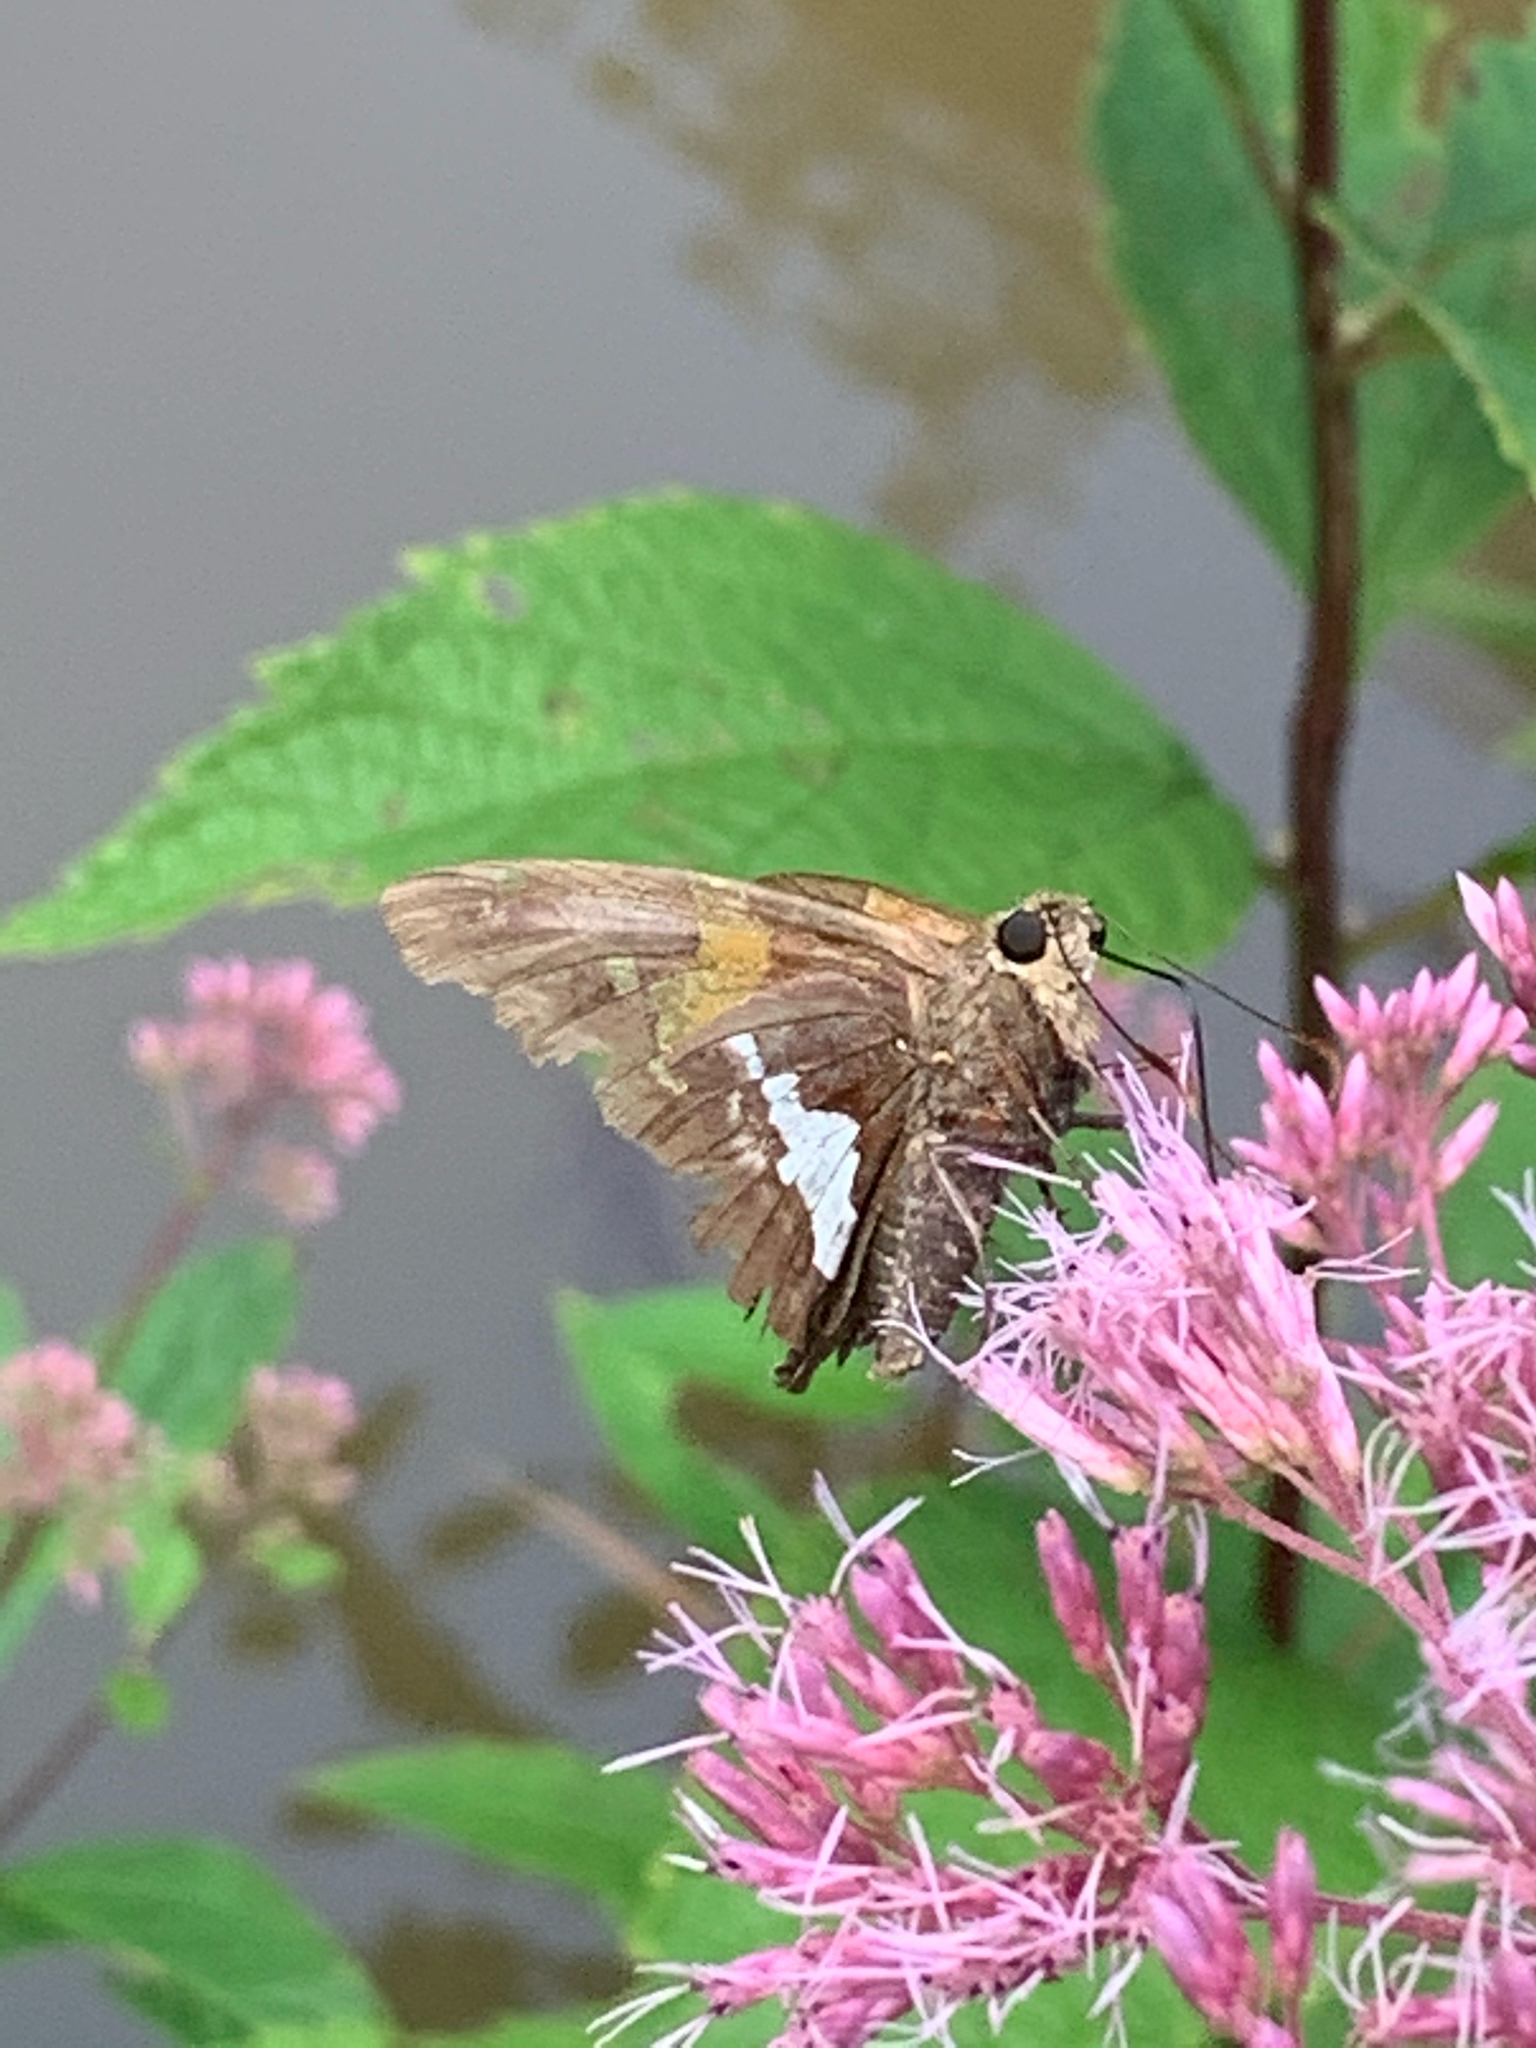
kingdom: Animalia
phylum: Arthropoda
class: Insecta
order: Lepidoptera
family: Hesperiidae
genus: Epargyreus
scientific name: Epargyreus clarus
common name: Silver-spotted skipper
